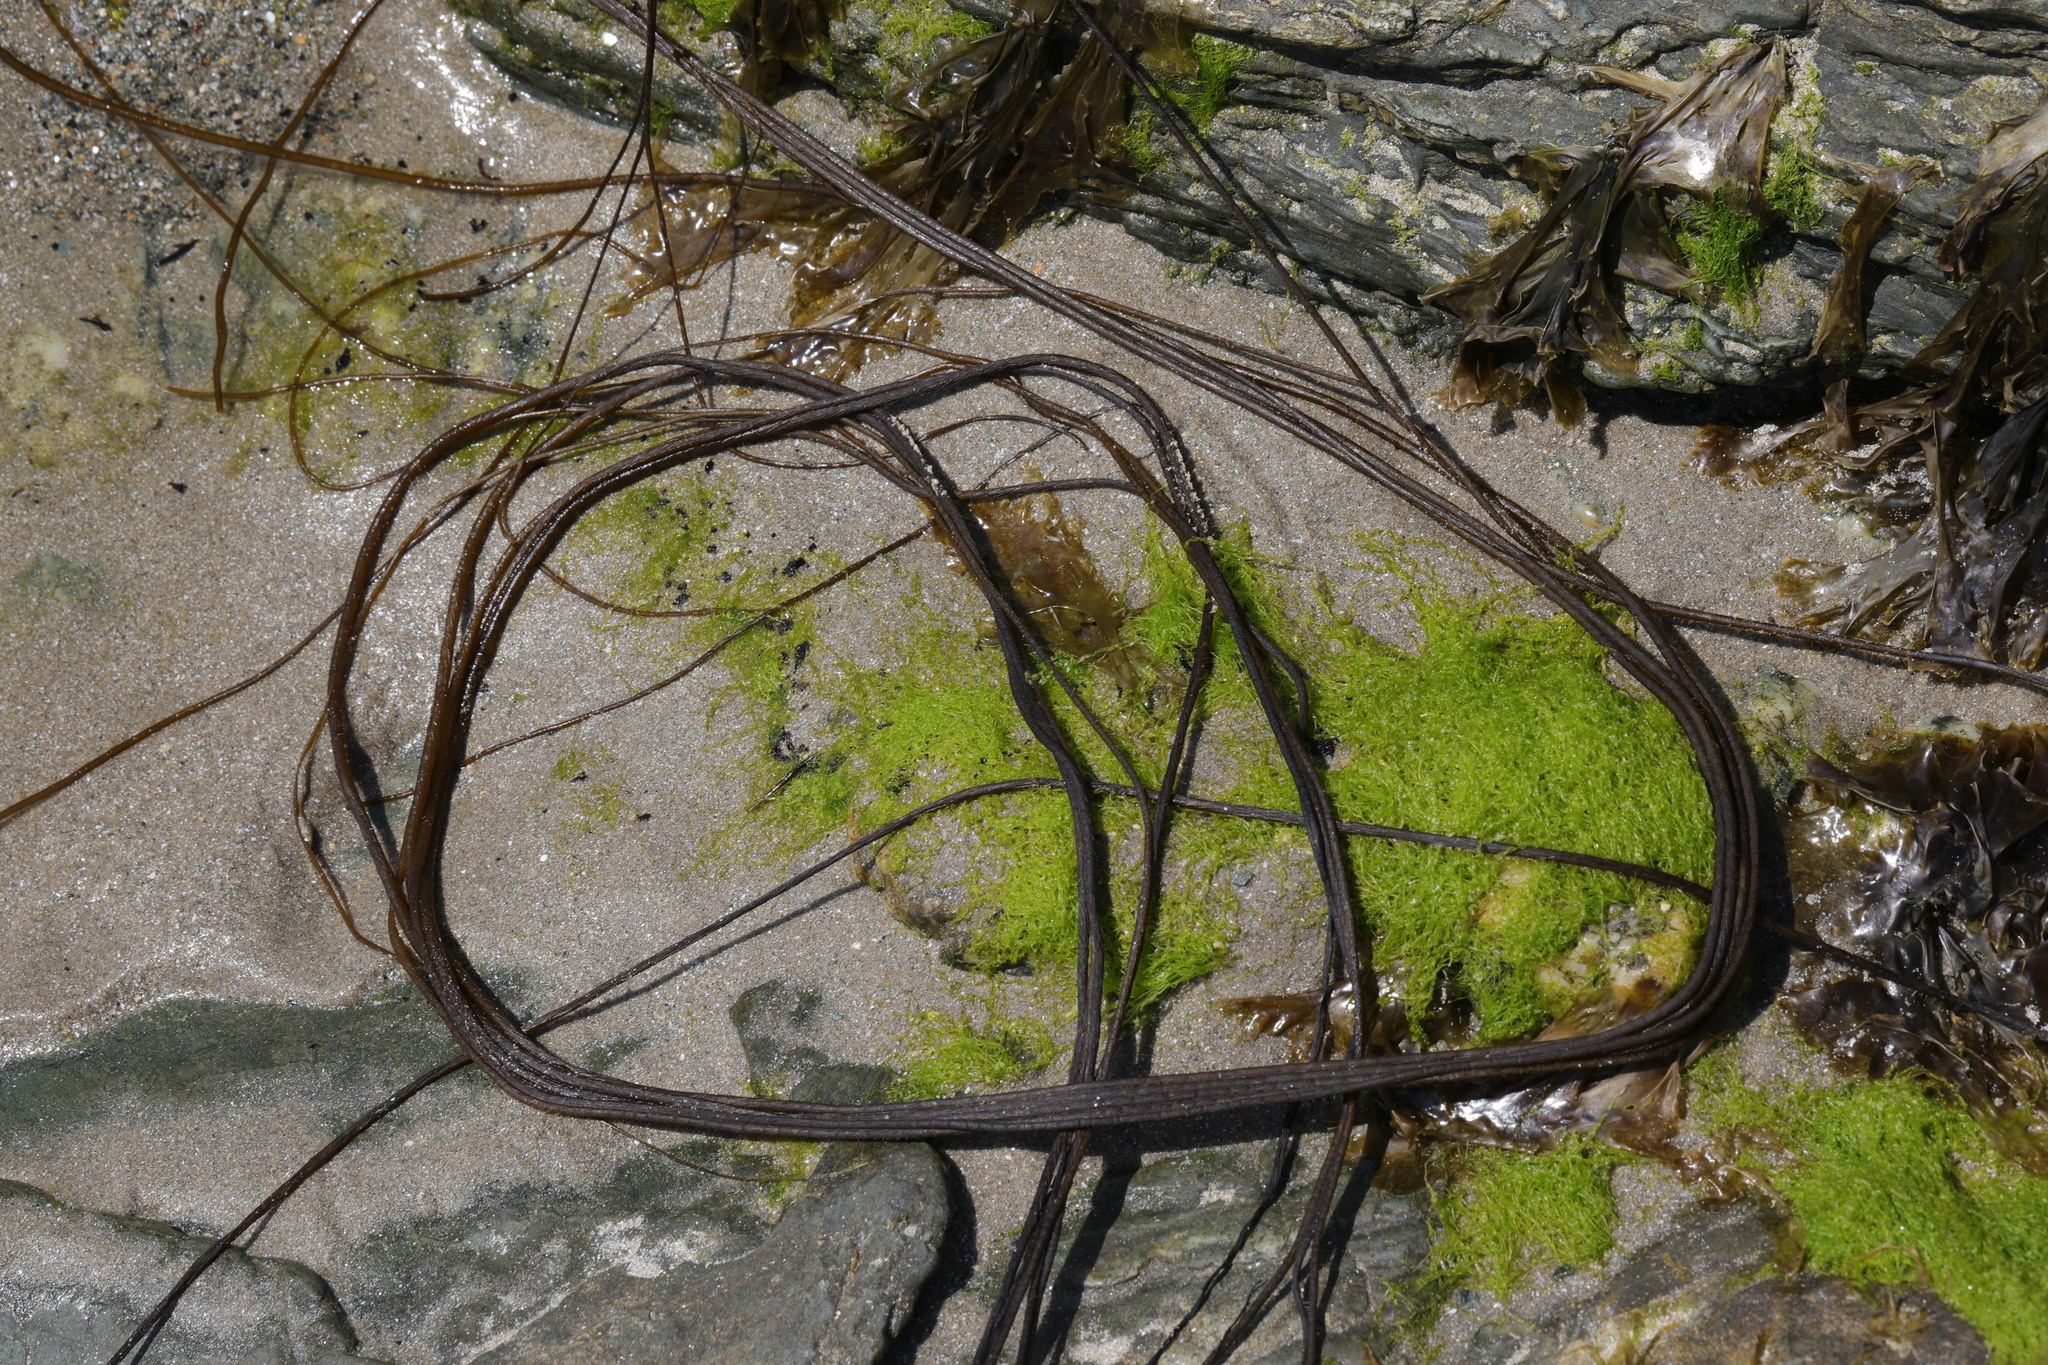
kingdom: Chromista
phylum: Ochrophyta
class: Phaeophyceae
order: Laminariales
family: Chordaceae
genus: Chorda
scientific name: Chorda filum
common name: Mermaid's tresses
